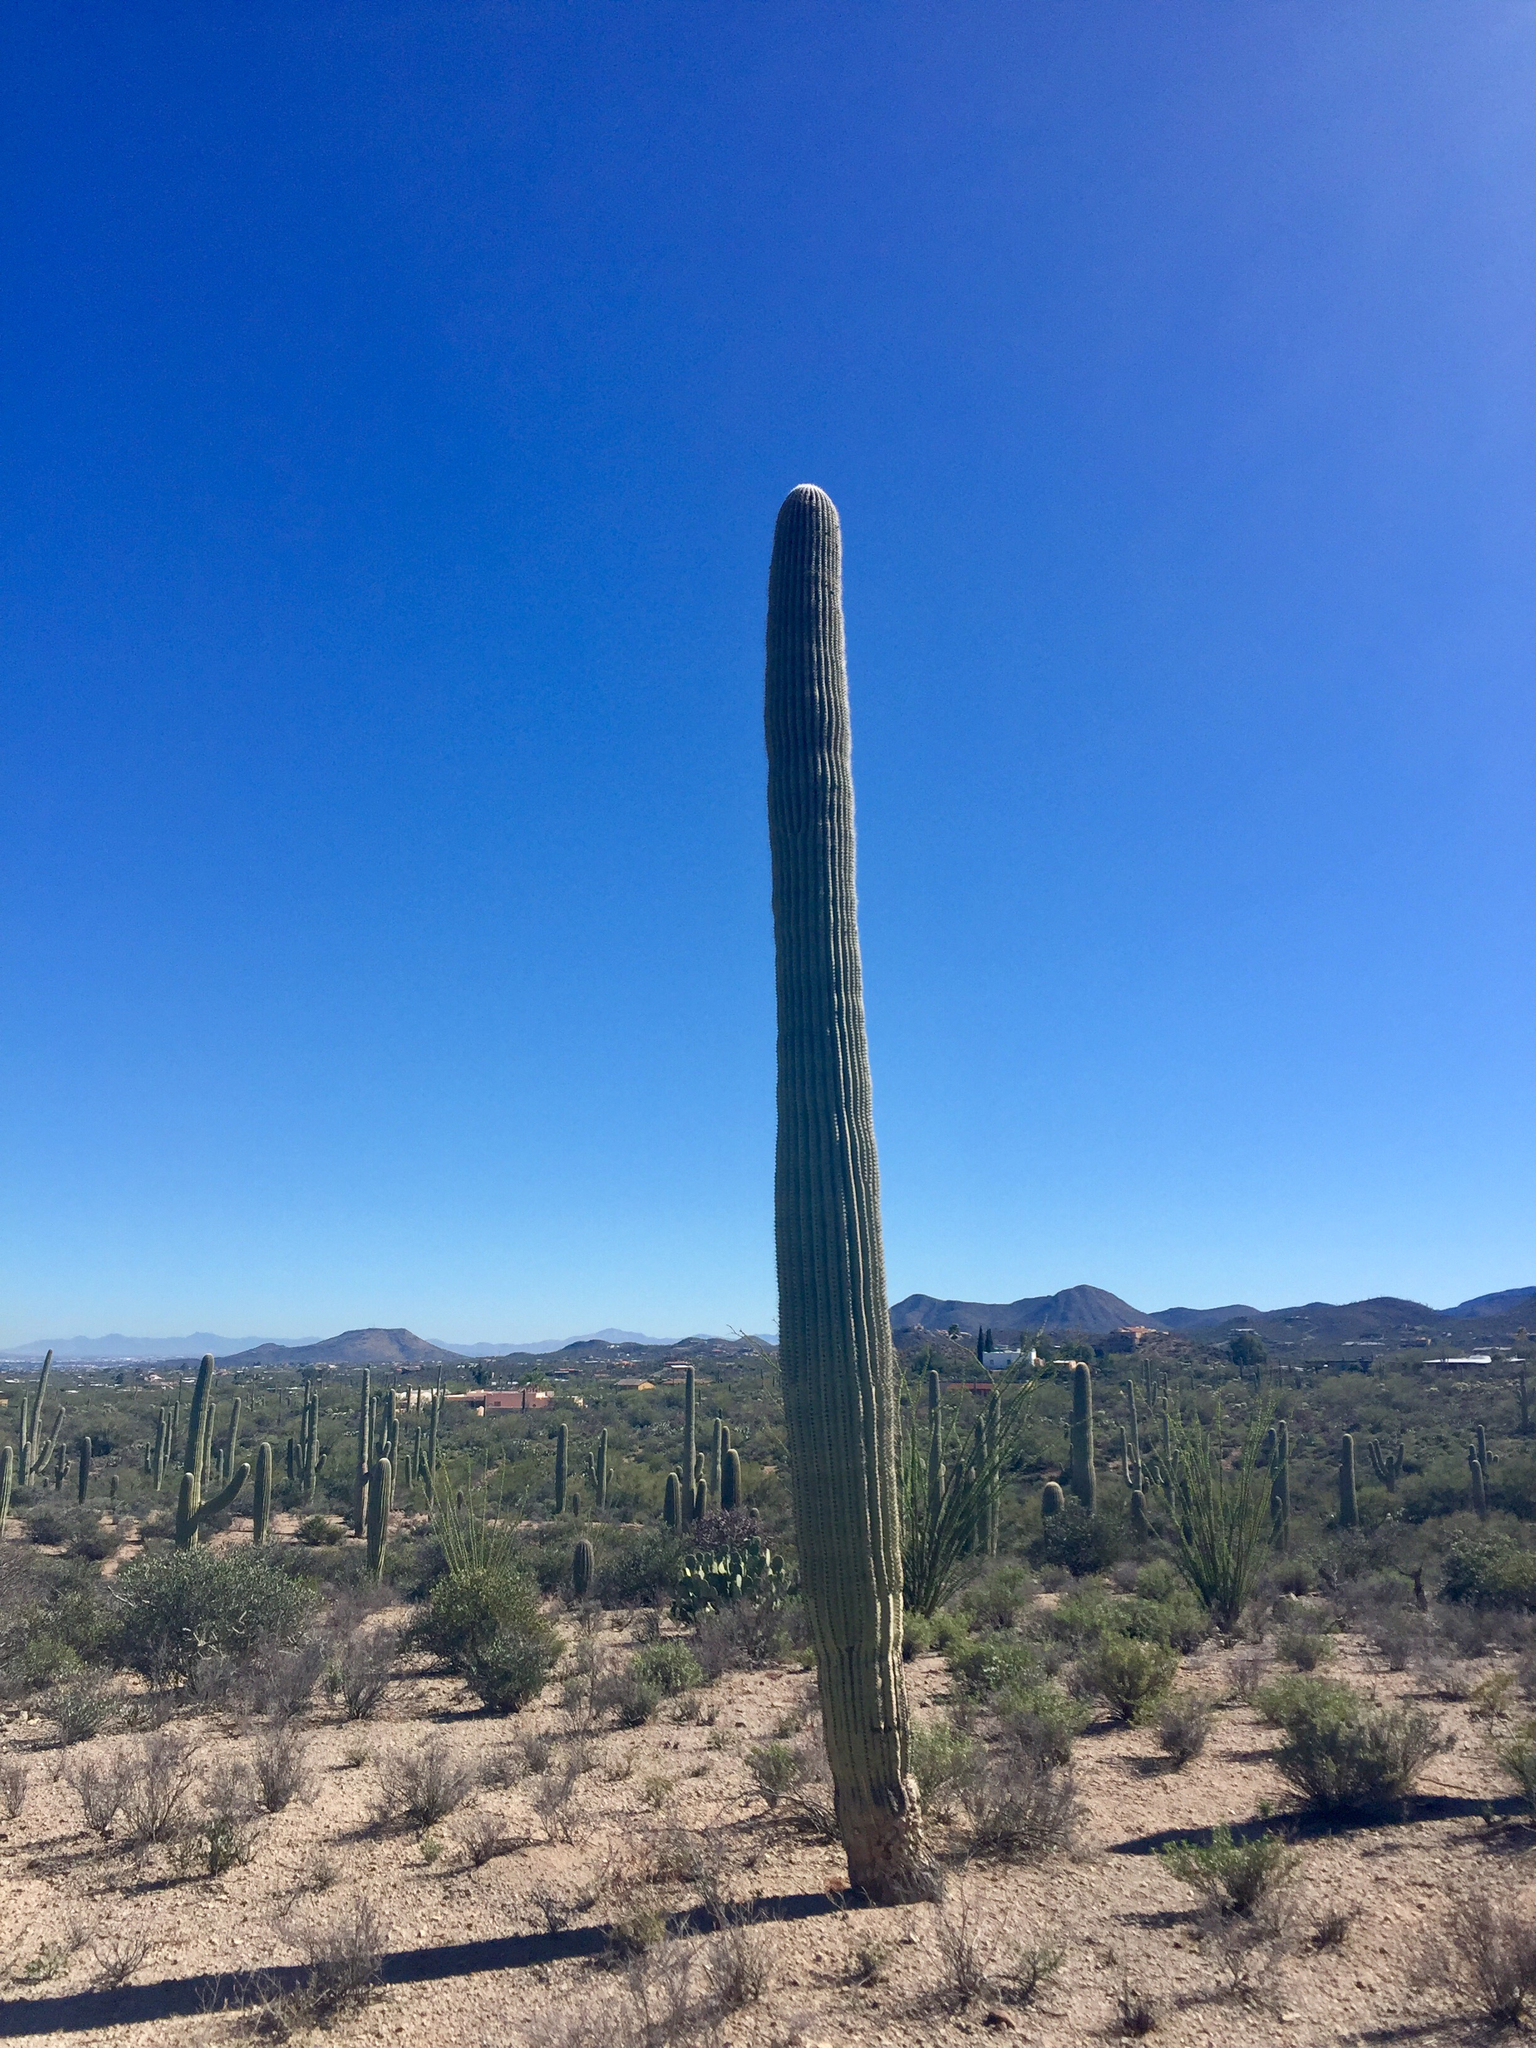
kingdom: Plantae
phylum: Tracheophyta
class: Magnoliopsida
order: Caryophyllales
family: Cactaceae
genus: Carnegiea
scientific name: Carnegiea gigantea
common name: Saguaro
